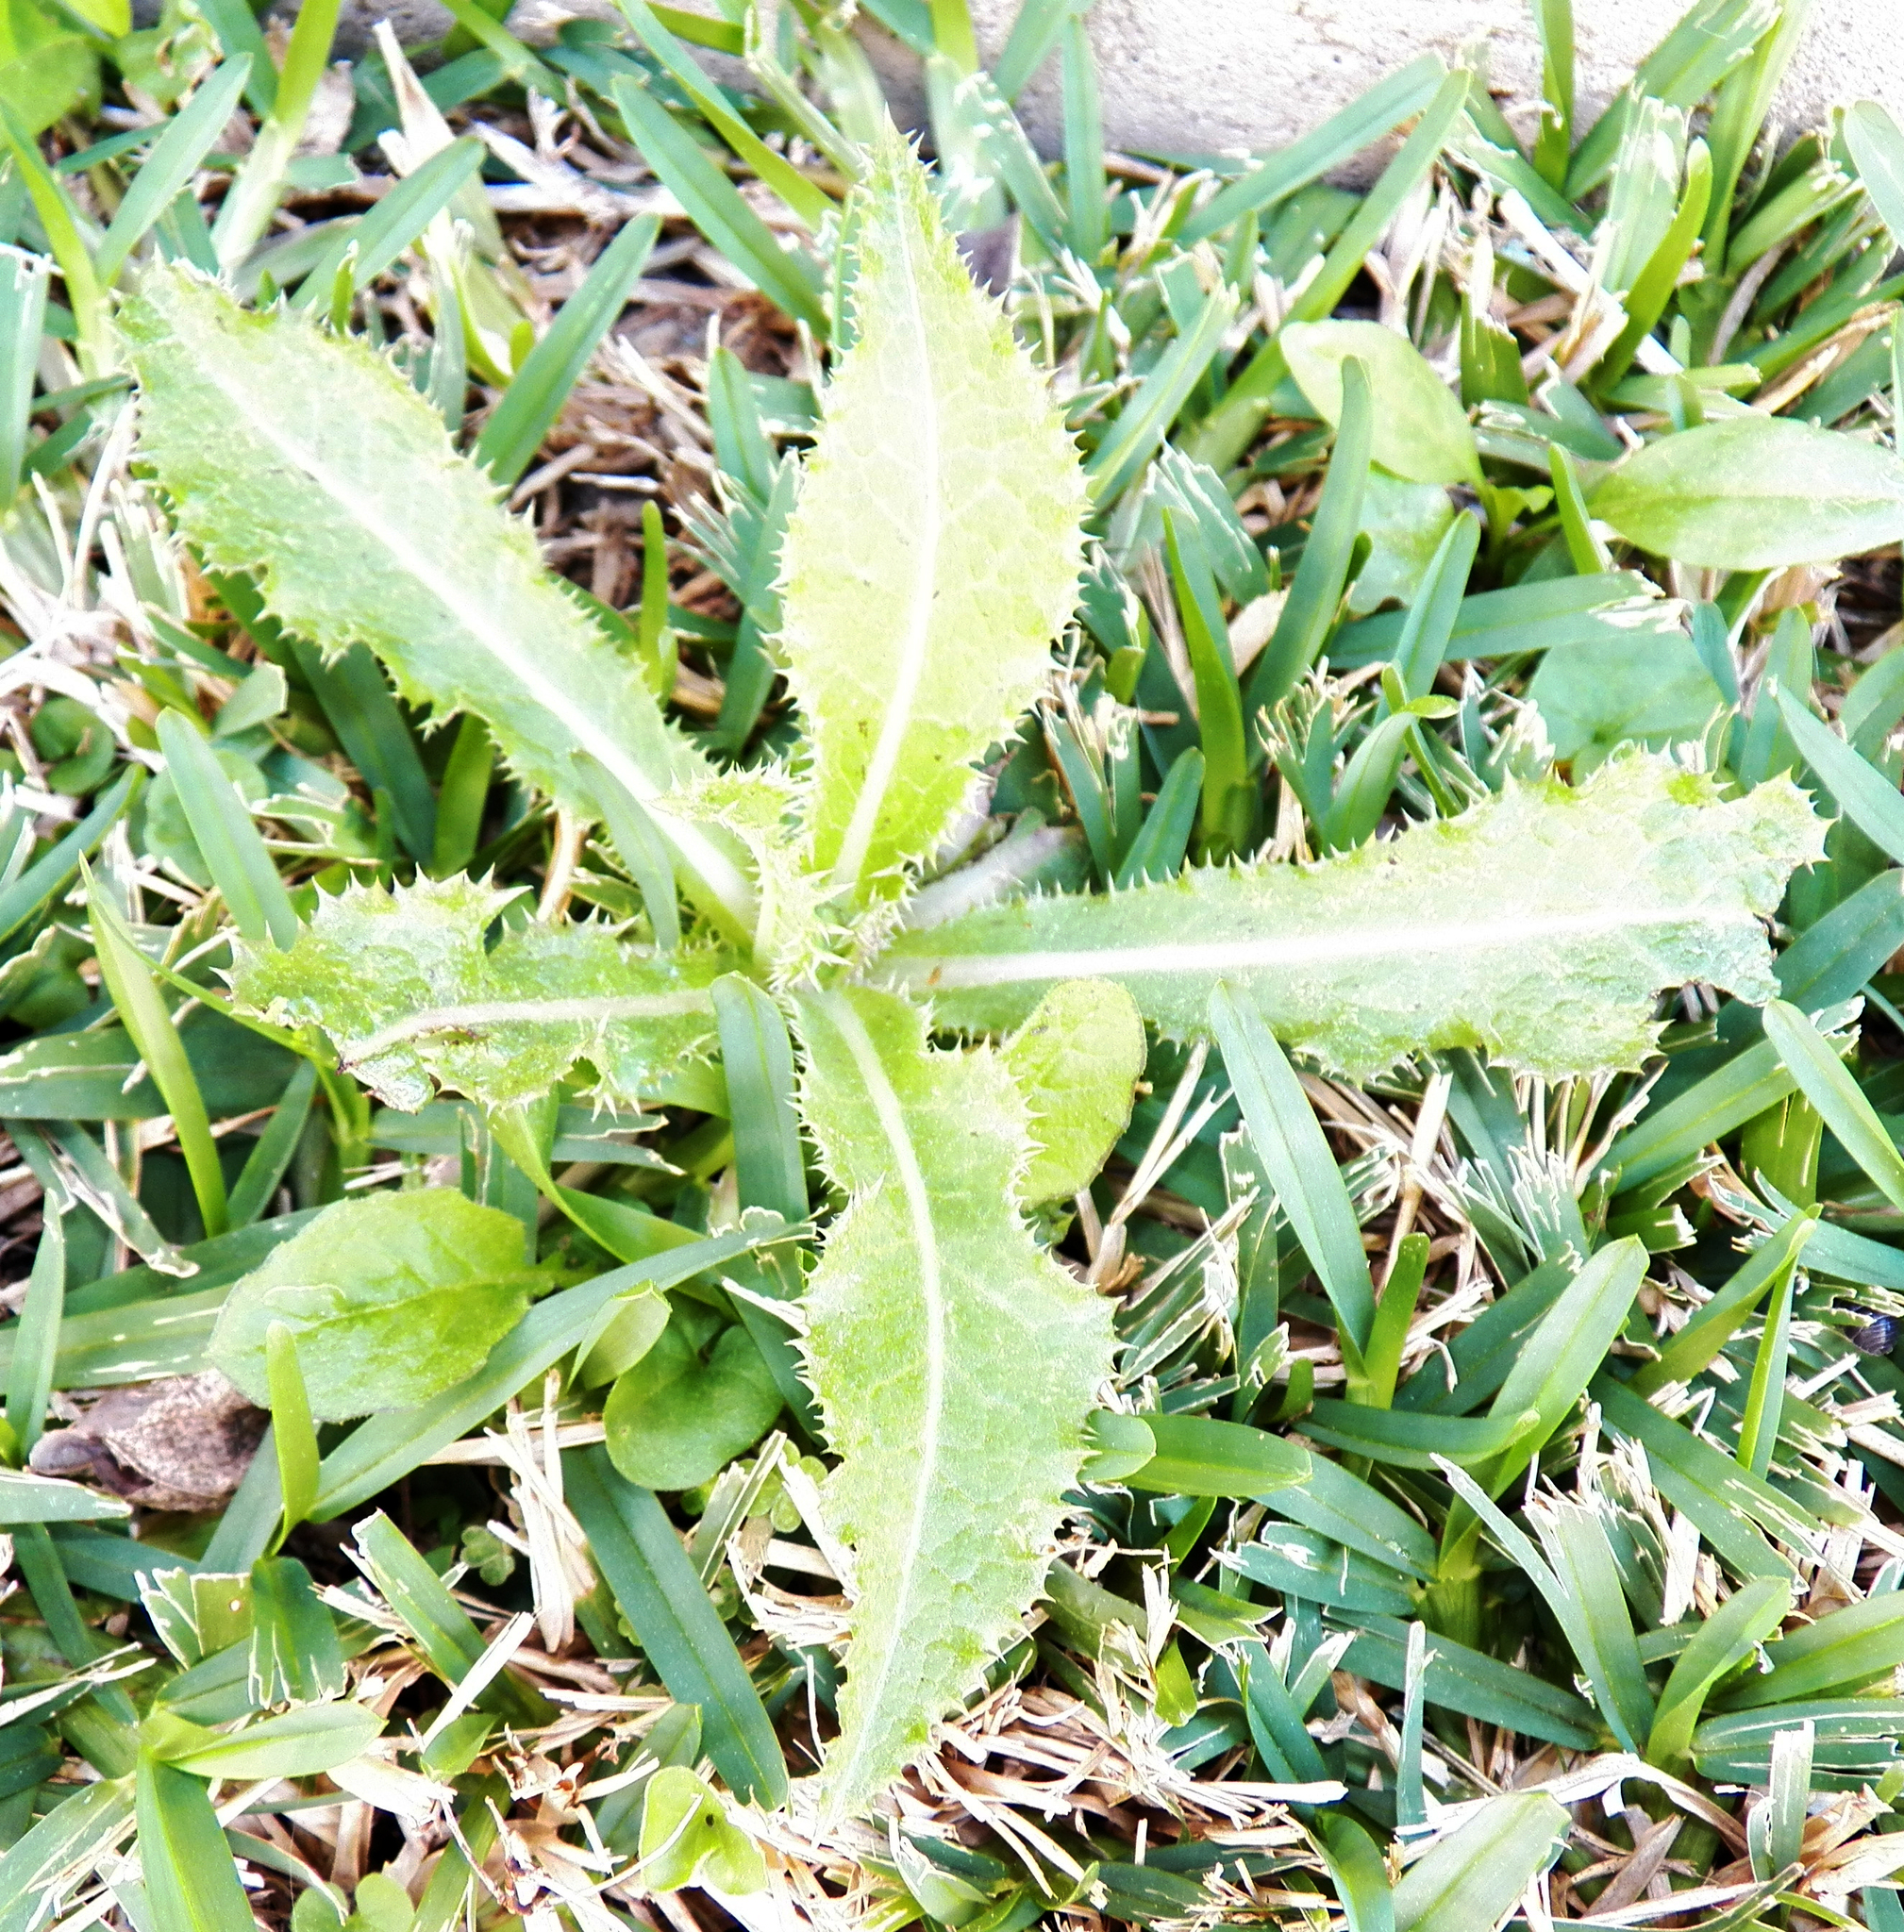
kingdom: Plantae
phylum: Tracheophyta
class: Magnoliopsida
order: Asterales
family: Asteraceae
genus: Sonchus
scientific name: Sonchus asper
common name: Prickly sow-thistle
